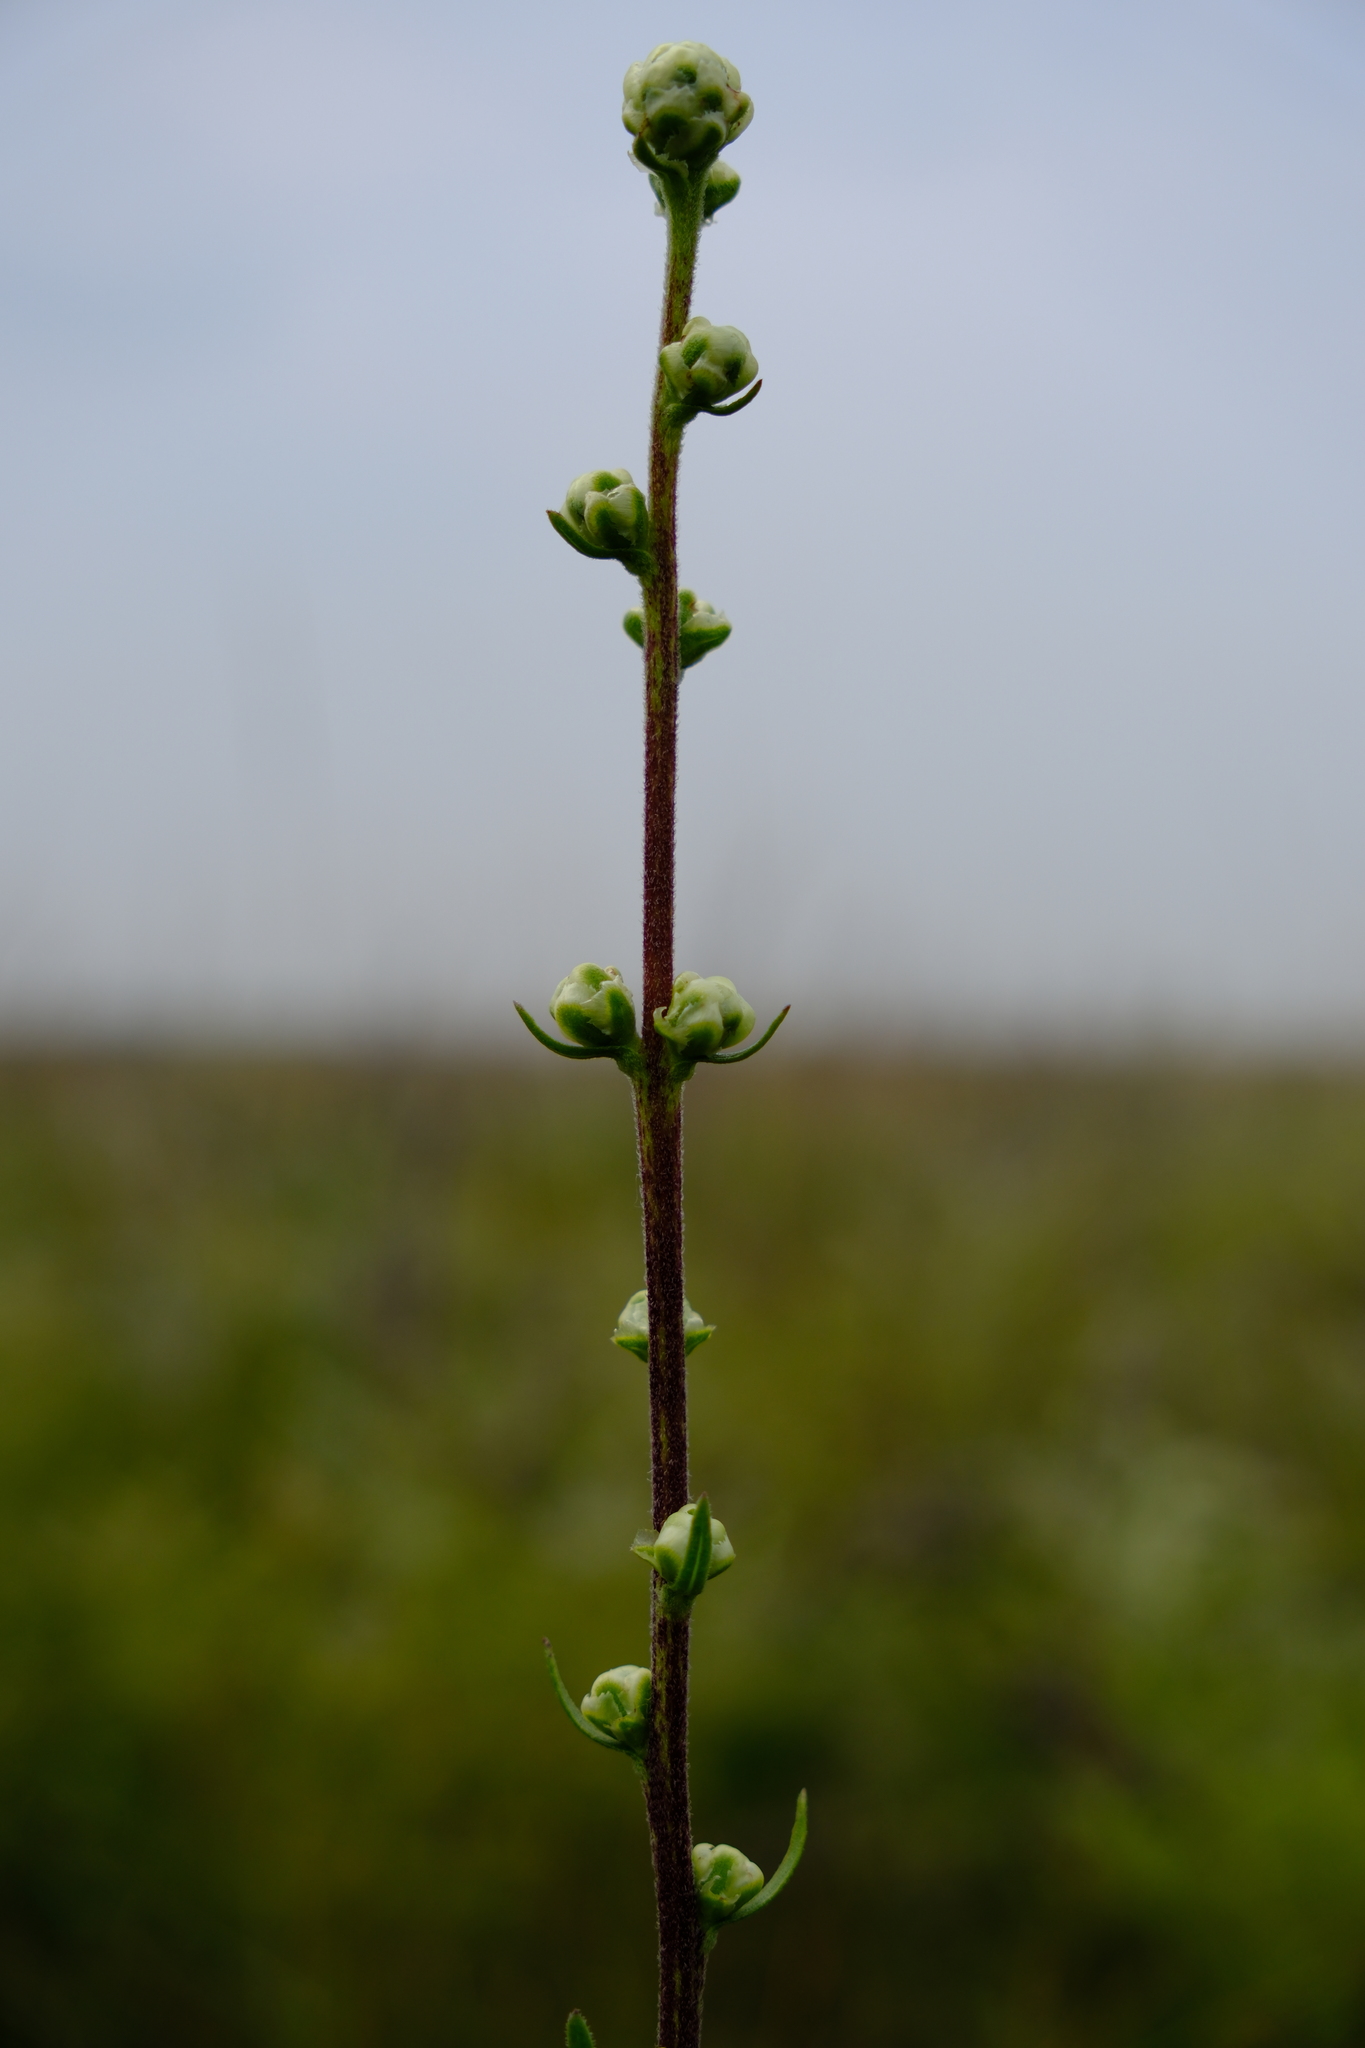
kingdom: Plantae
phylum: Tracheophyta
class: Magnoliopsida
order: Asterales
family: Asteraceae
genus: Liatris
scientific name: Liatris aspera
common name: Lacerate blazing-star
